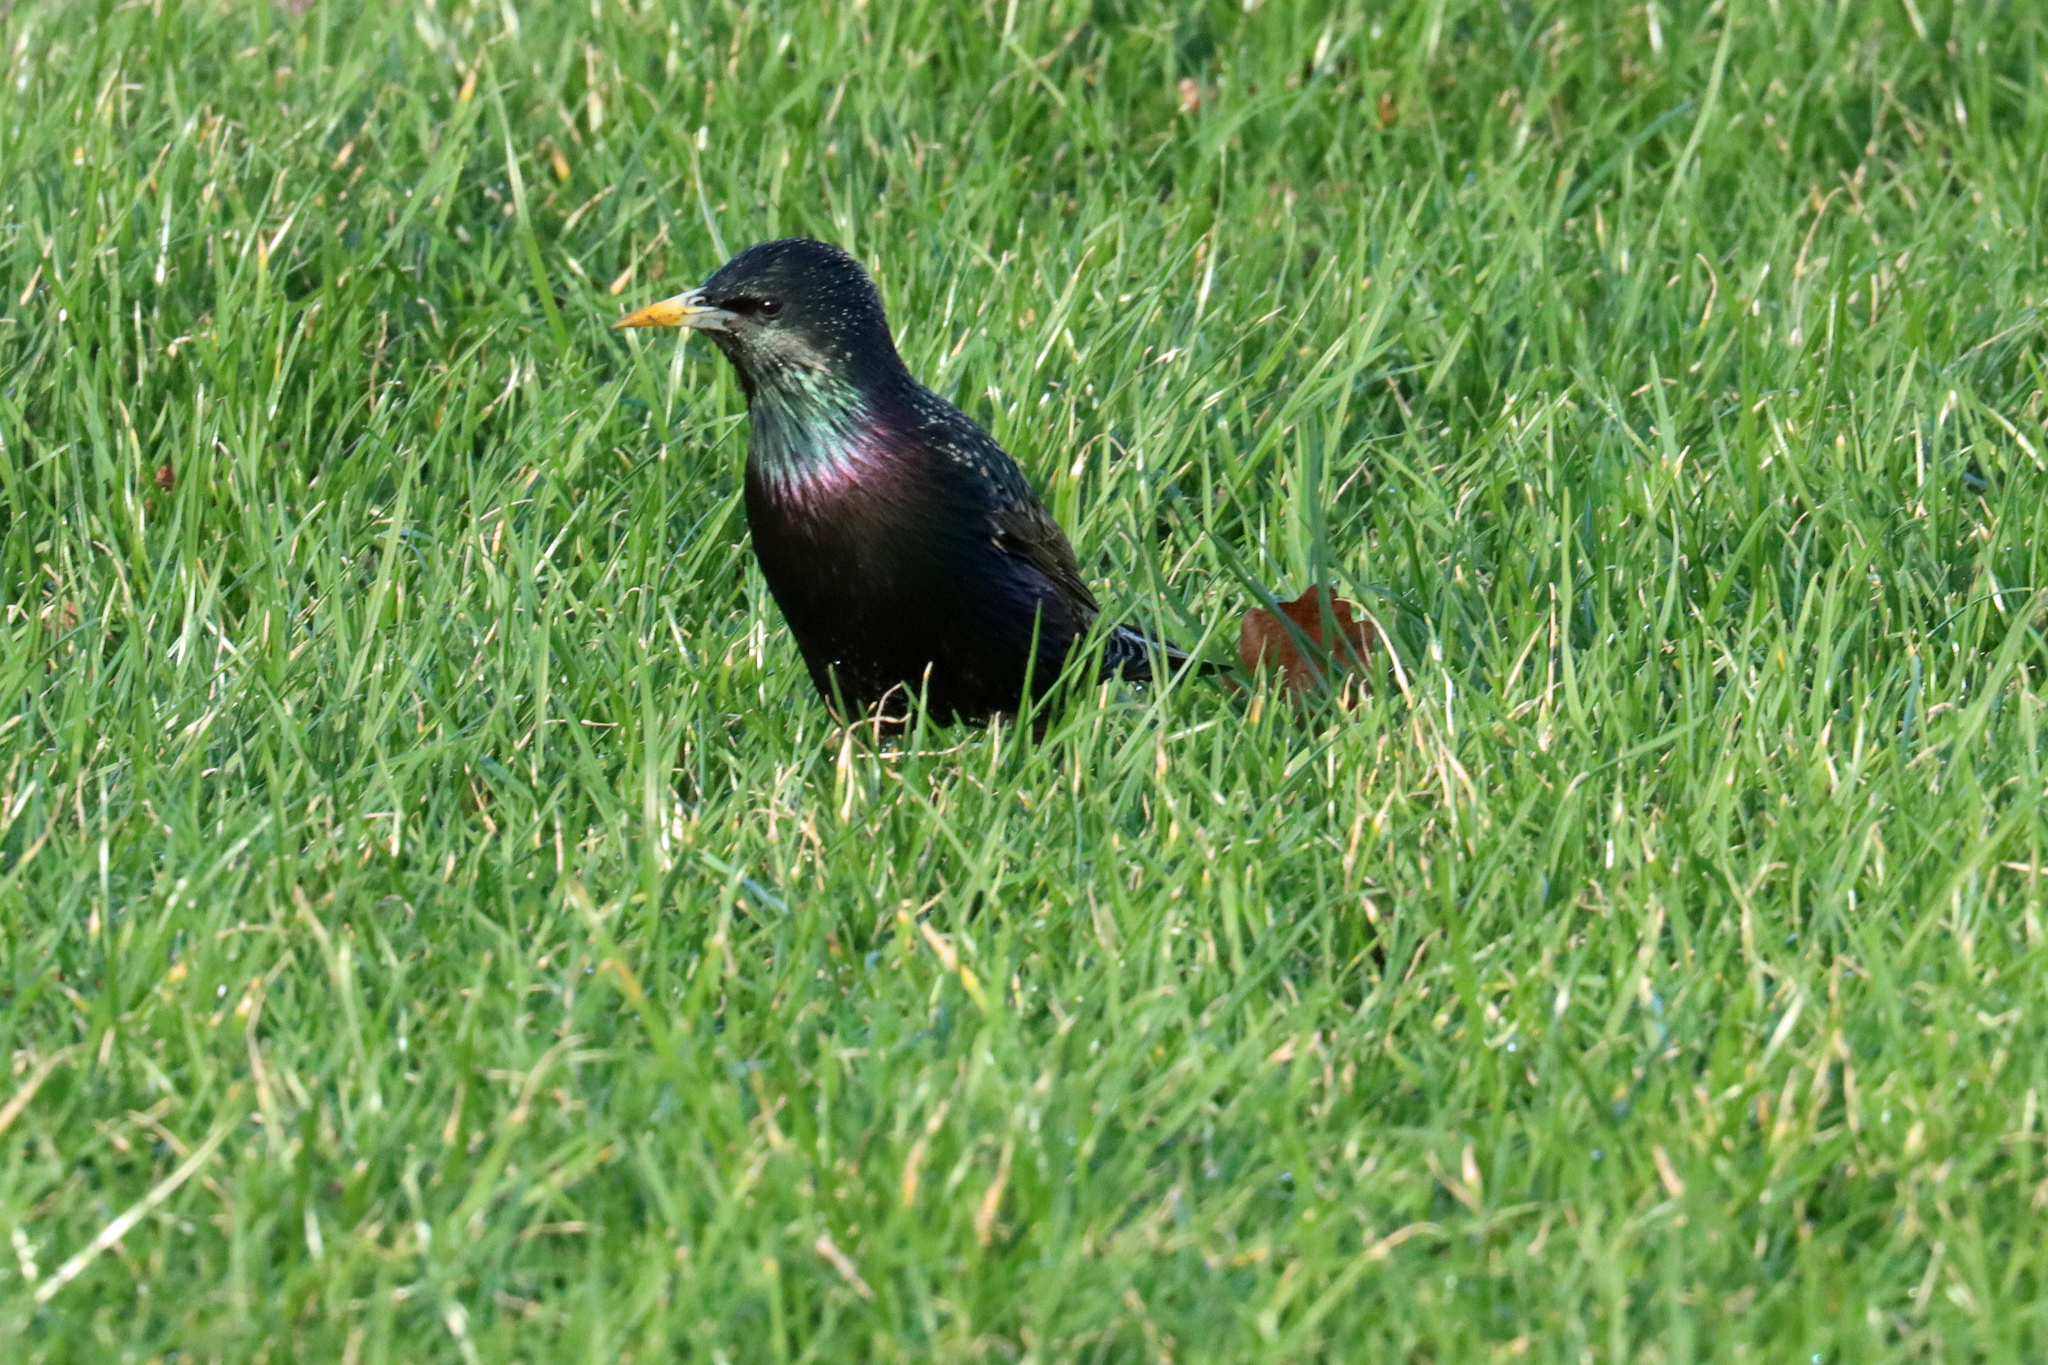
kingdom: Animalia
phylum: Chordata
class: Aves
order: Passeriformes
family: Sturnidae
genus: Sturnus
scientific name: Sturnus vulgaris
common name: Common starling
